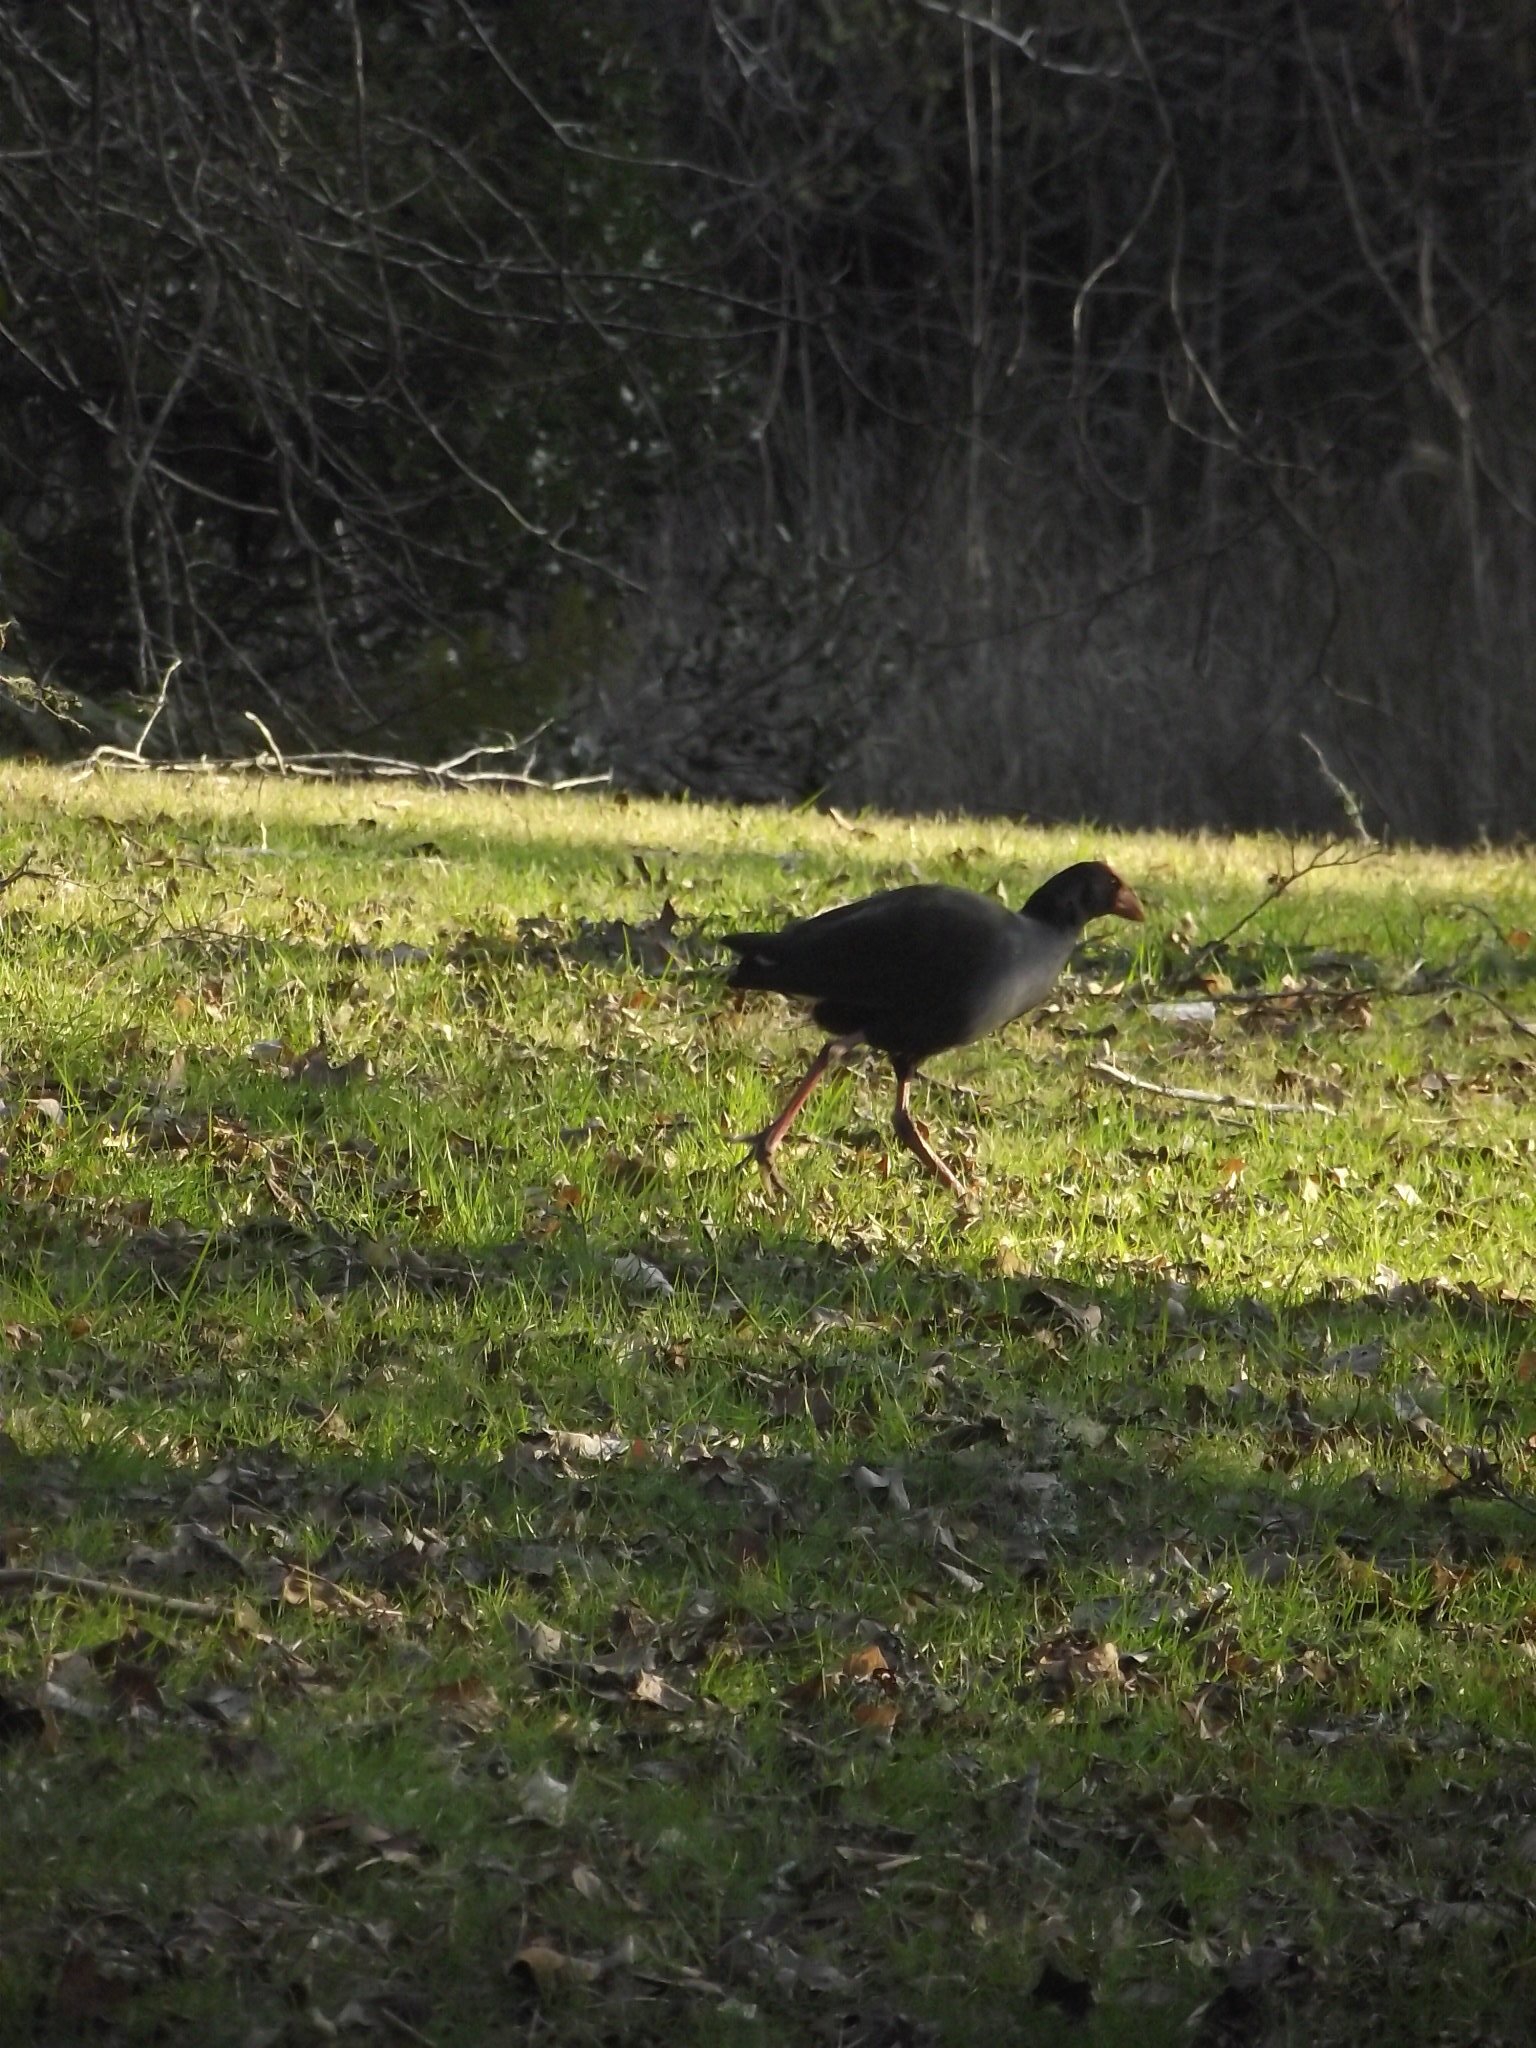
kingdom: Animalia
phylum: Chordata
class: Aves
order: Gruiformes
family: Rallidae
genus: Porphyrio
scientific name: Porphyrio melanotus
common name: Australasian swamphen
